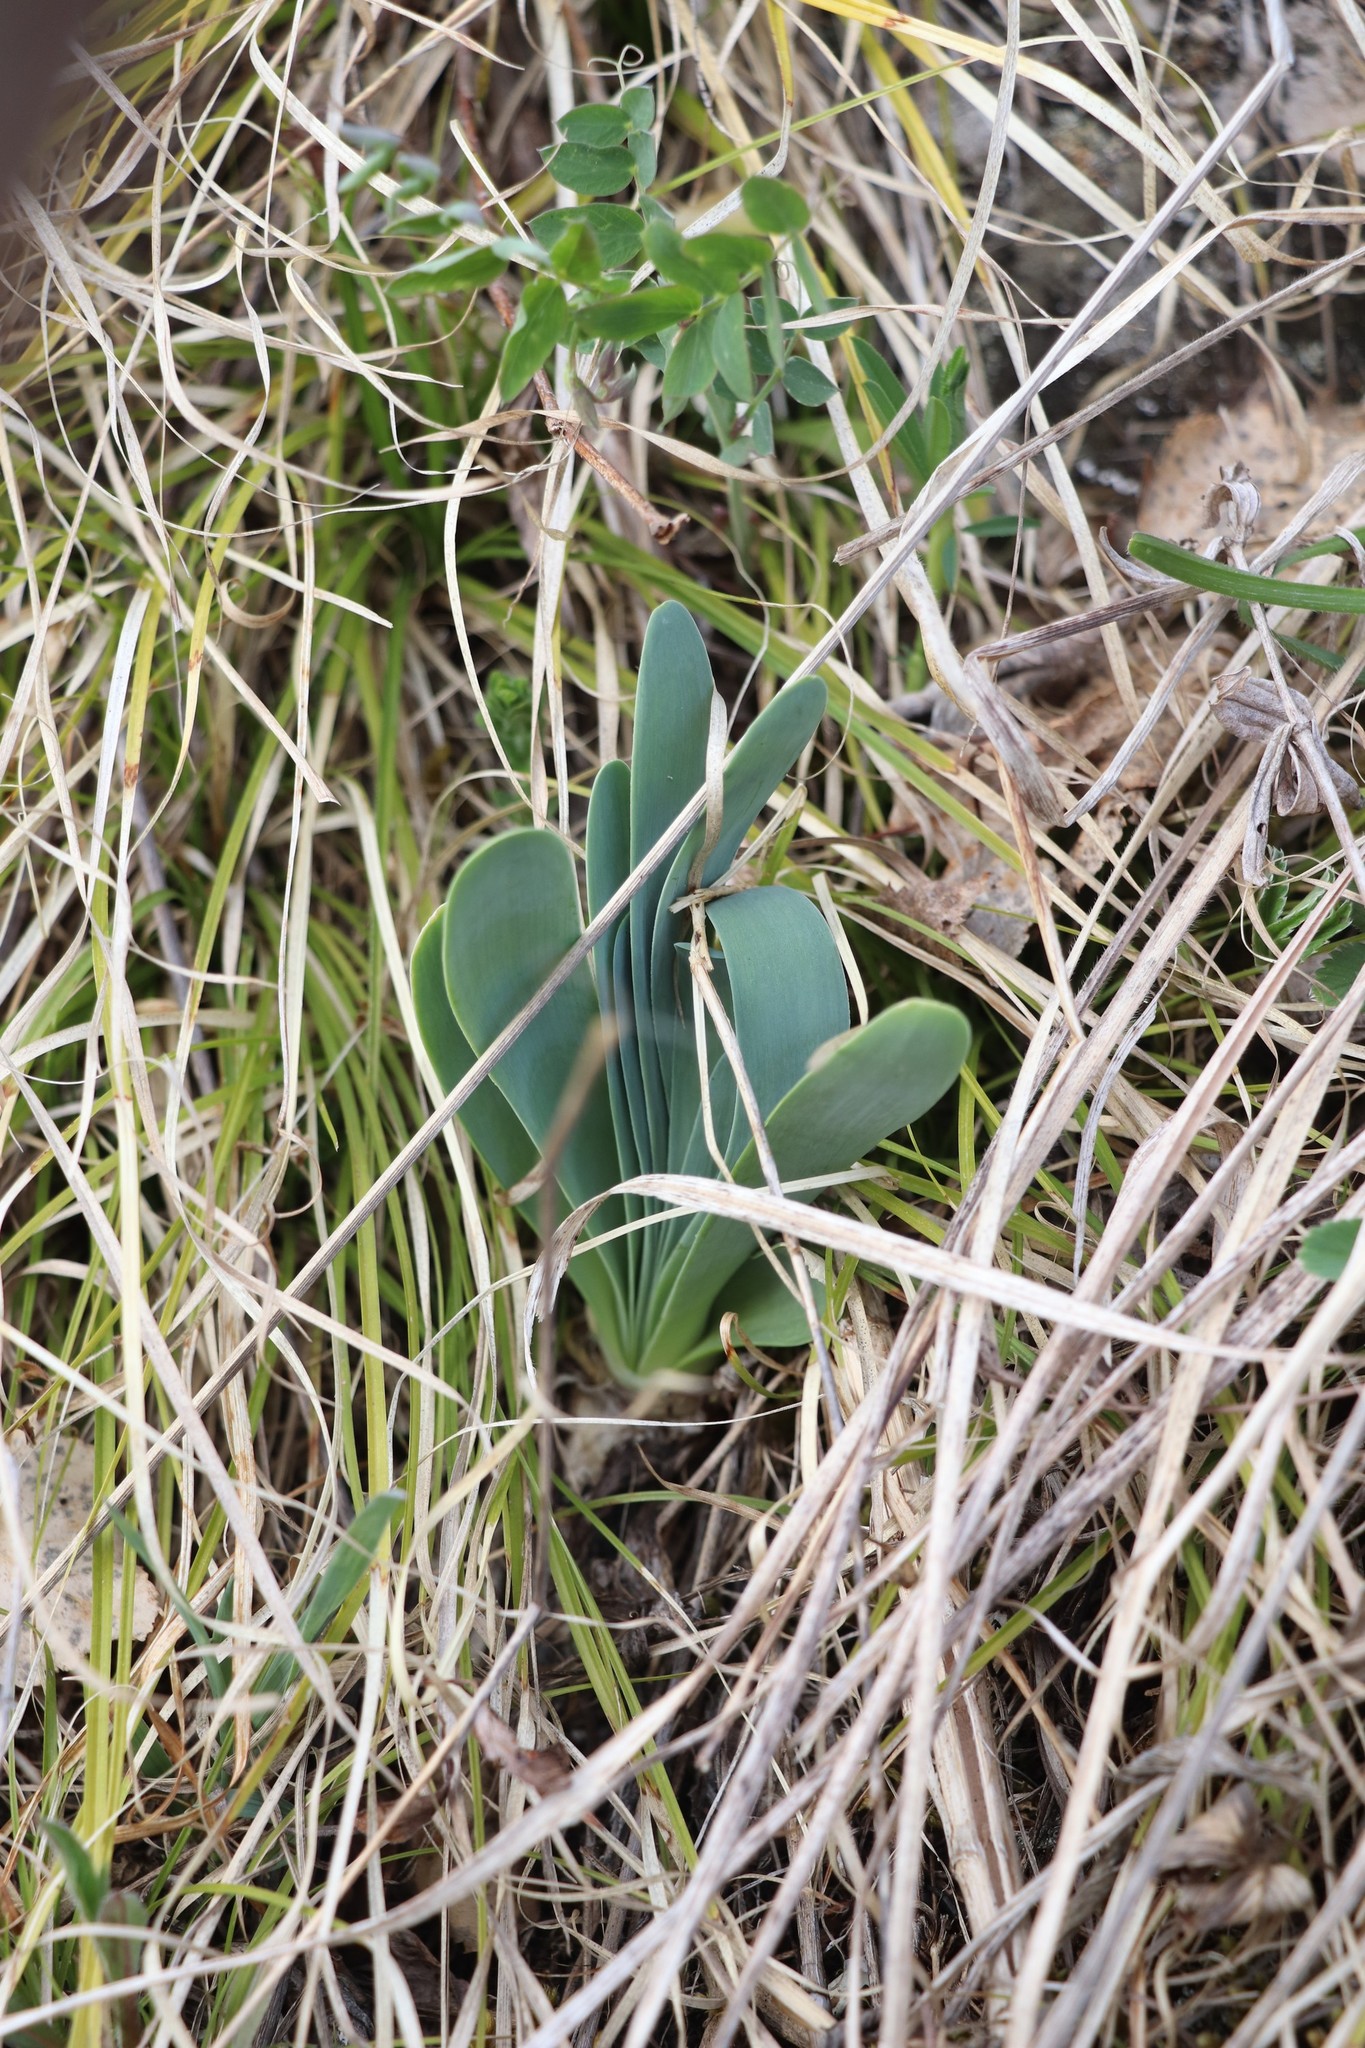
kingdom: Plantae
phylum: Tracheophyta
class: Liliopsida
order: Asparagales
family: Amaryllidaceae
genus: Allium
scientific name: Allium nutans
